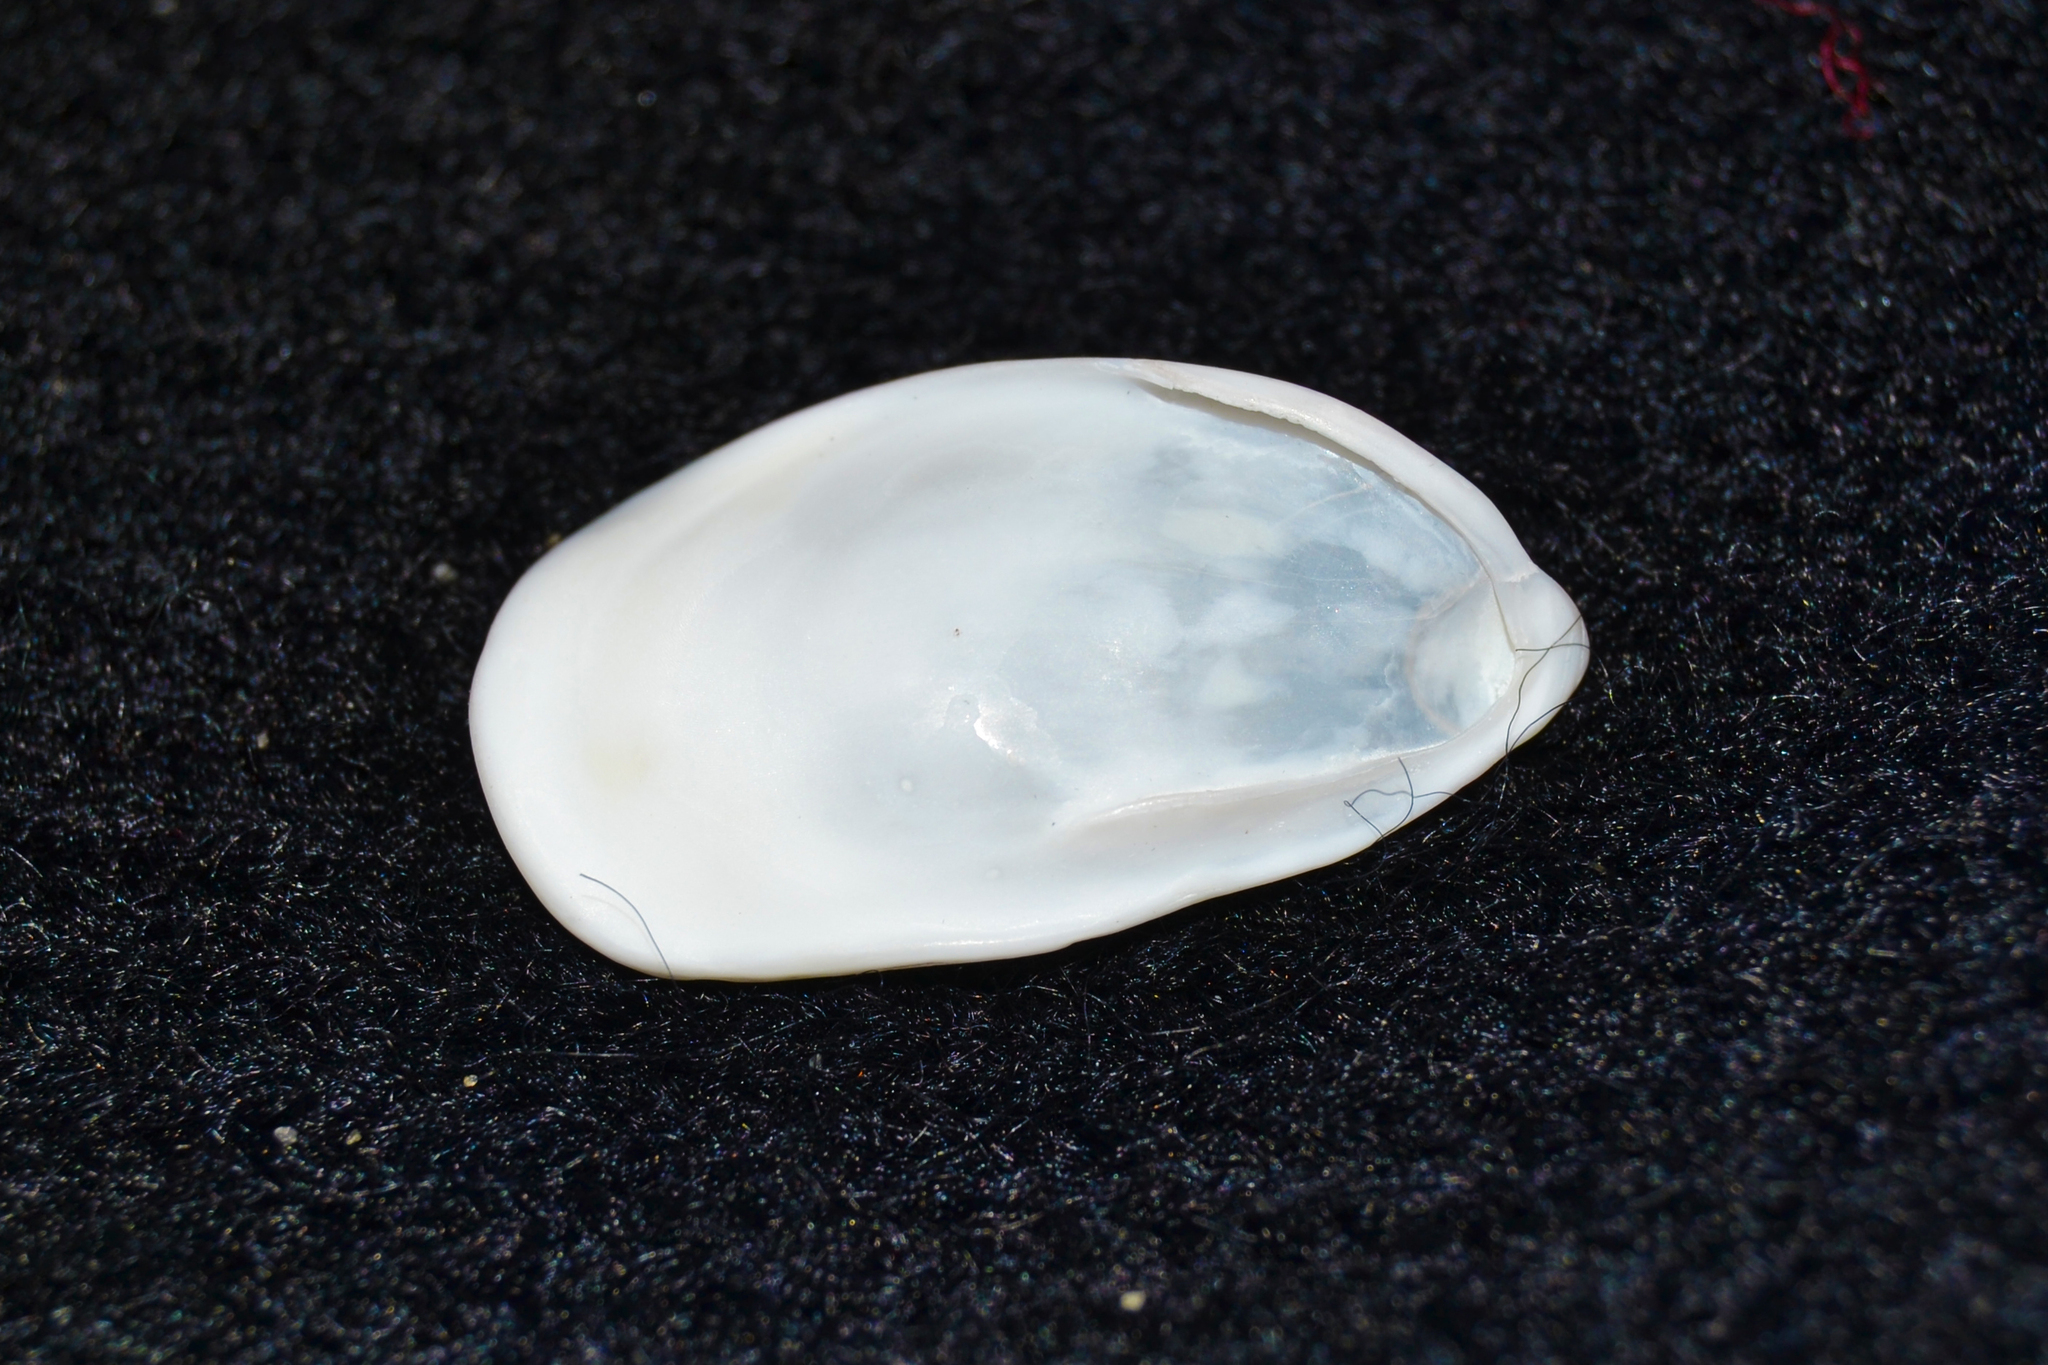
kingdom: Animalia
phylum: Mollusca
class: Gastropoda
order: Littorinimorpha
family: Calyptraeidae
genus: Crepidula
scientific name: Crepidula plana
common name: Eastern white slippersnail
